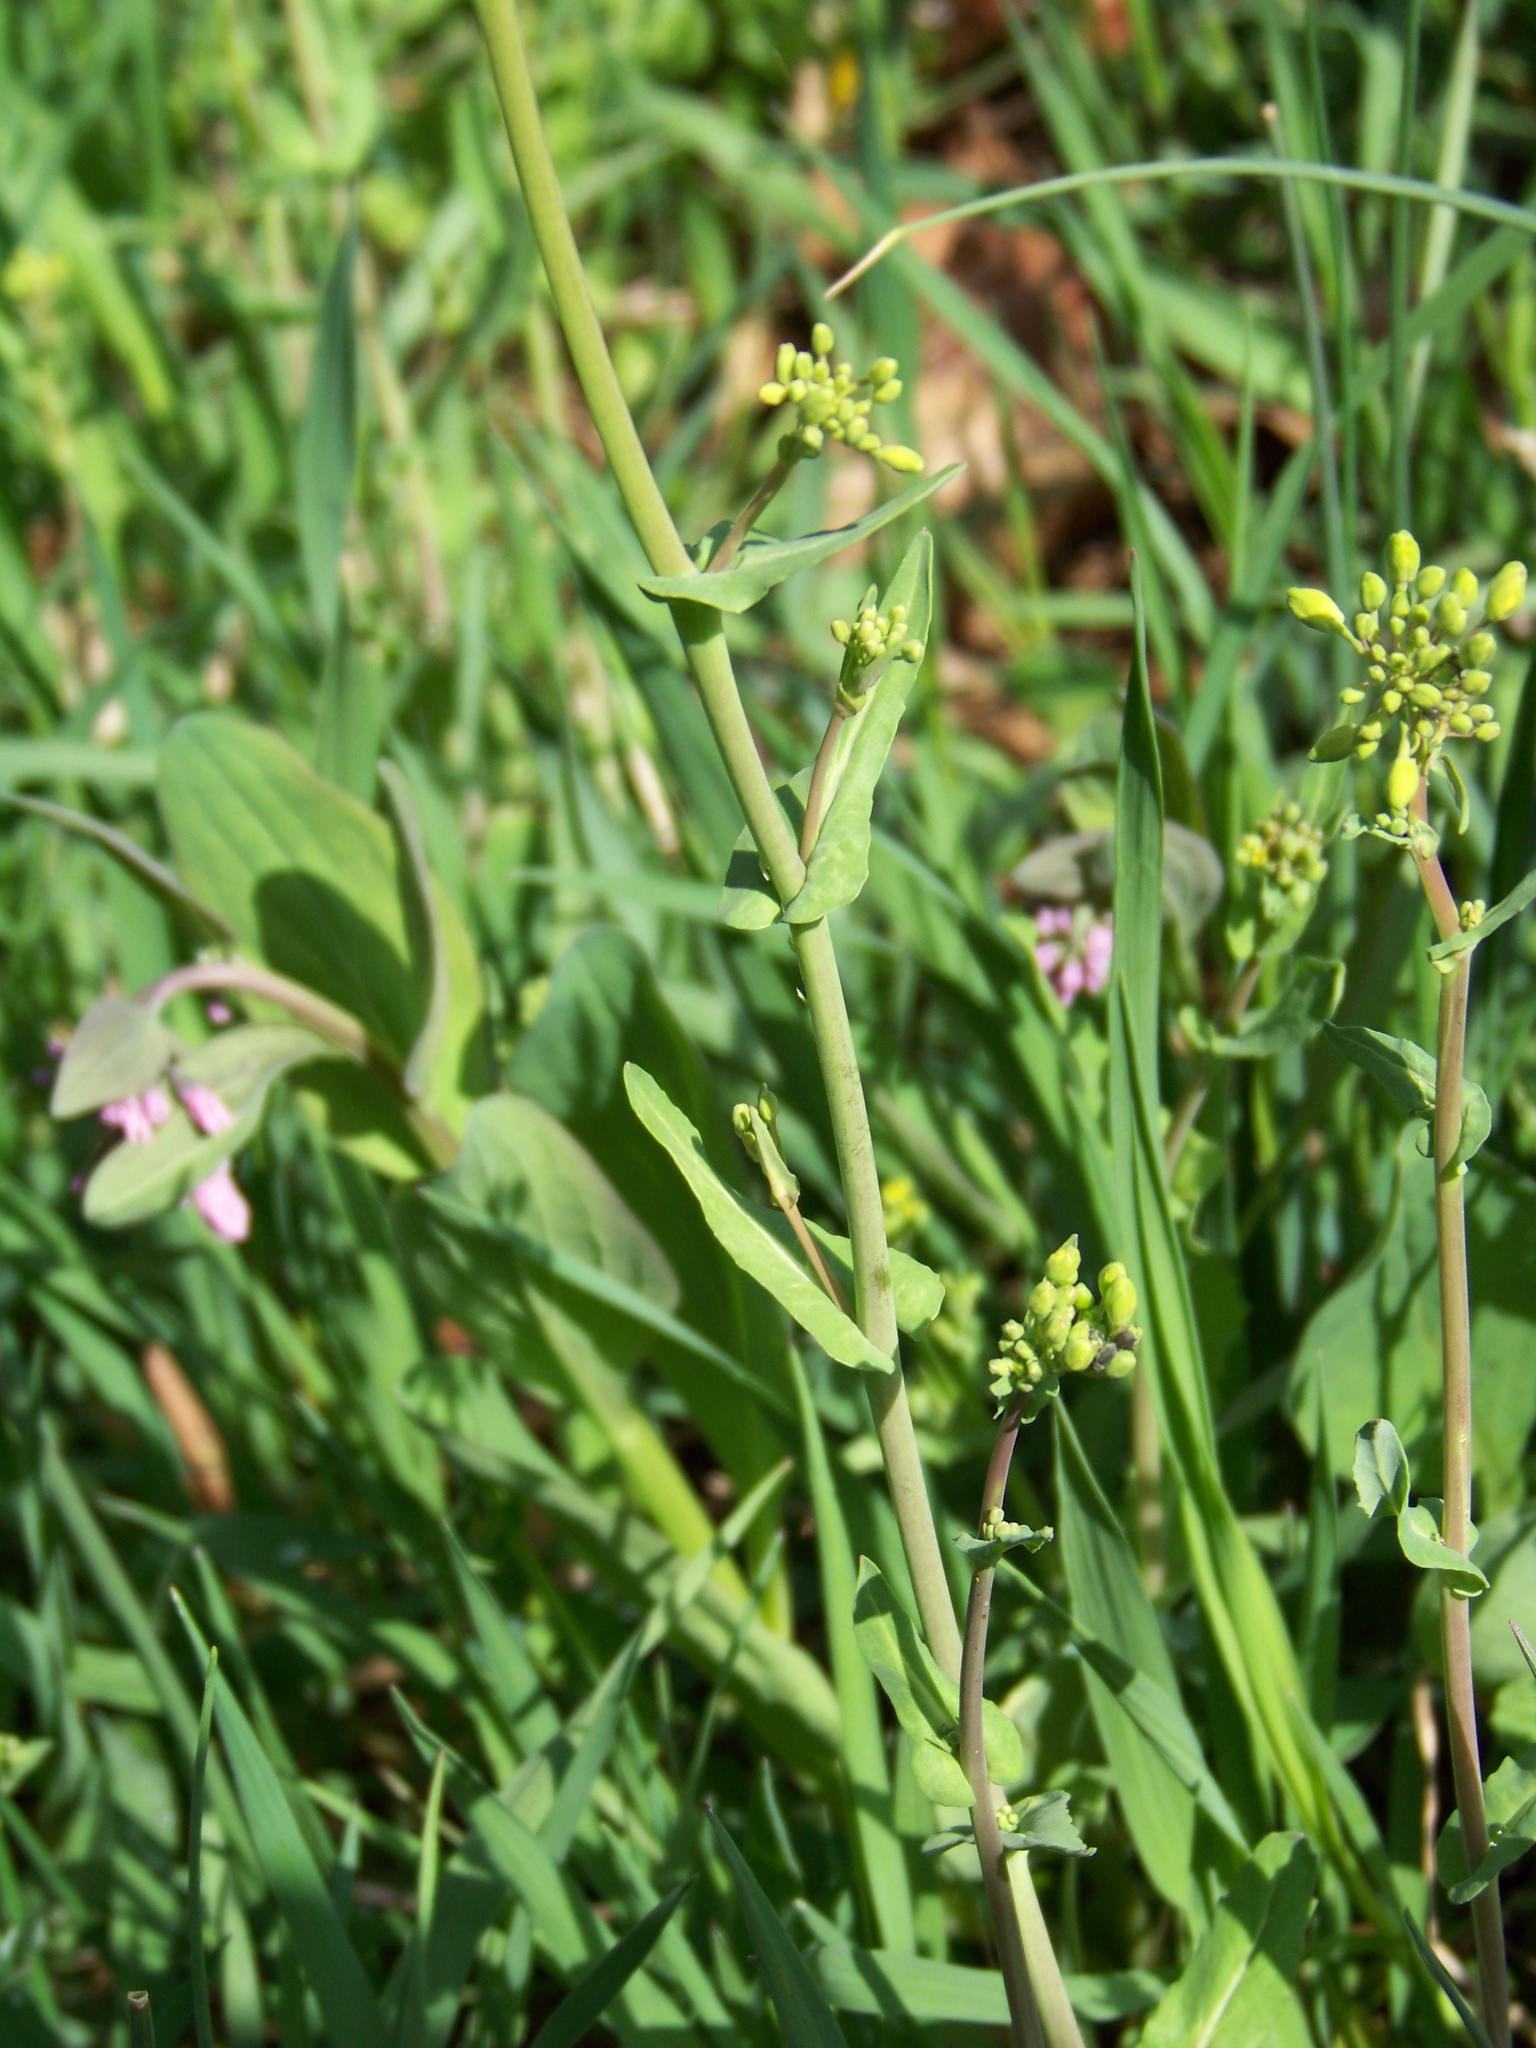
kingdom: Plantae
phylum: Tracheophyta
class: Magnoliopsida
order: Brassicales
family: Brassicaceae
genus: Brassica
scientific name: Brassica rapa
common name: Field mustard
